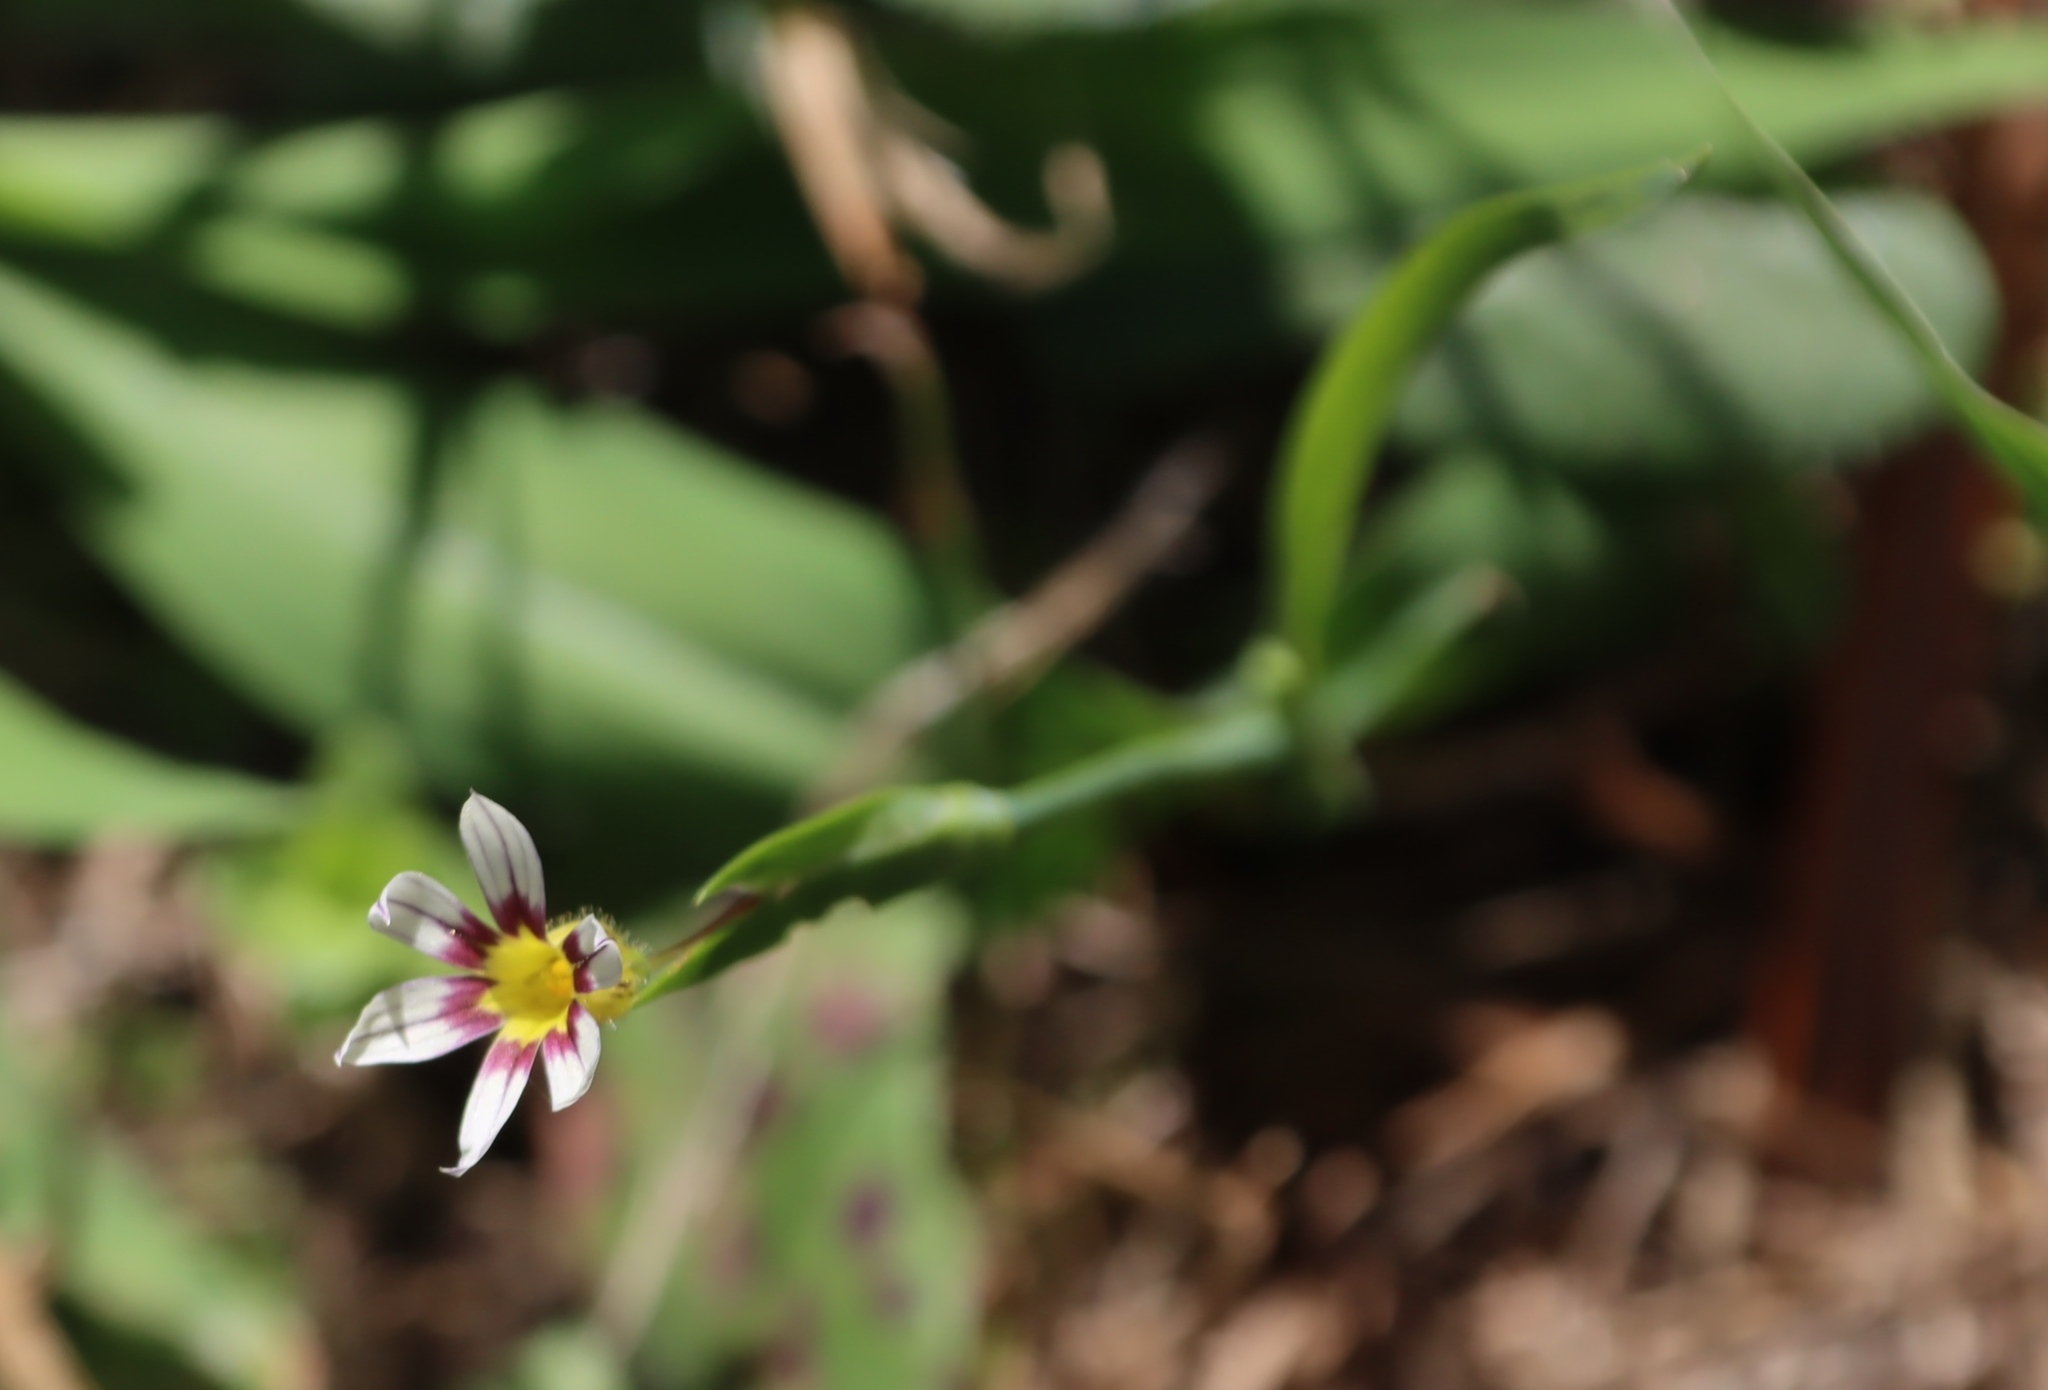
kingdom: Plantae
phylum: Tracheophyta
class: Liliopsida
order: Asparagales
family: Iridaceae
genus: Sisyrinchium
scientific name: Sisyrinchium micranthum
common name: Bermuda pigroot
